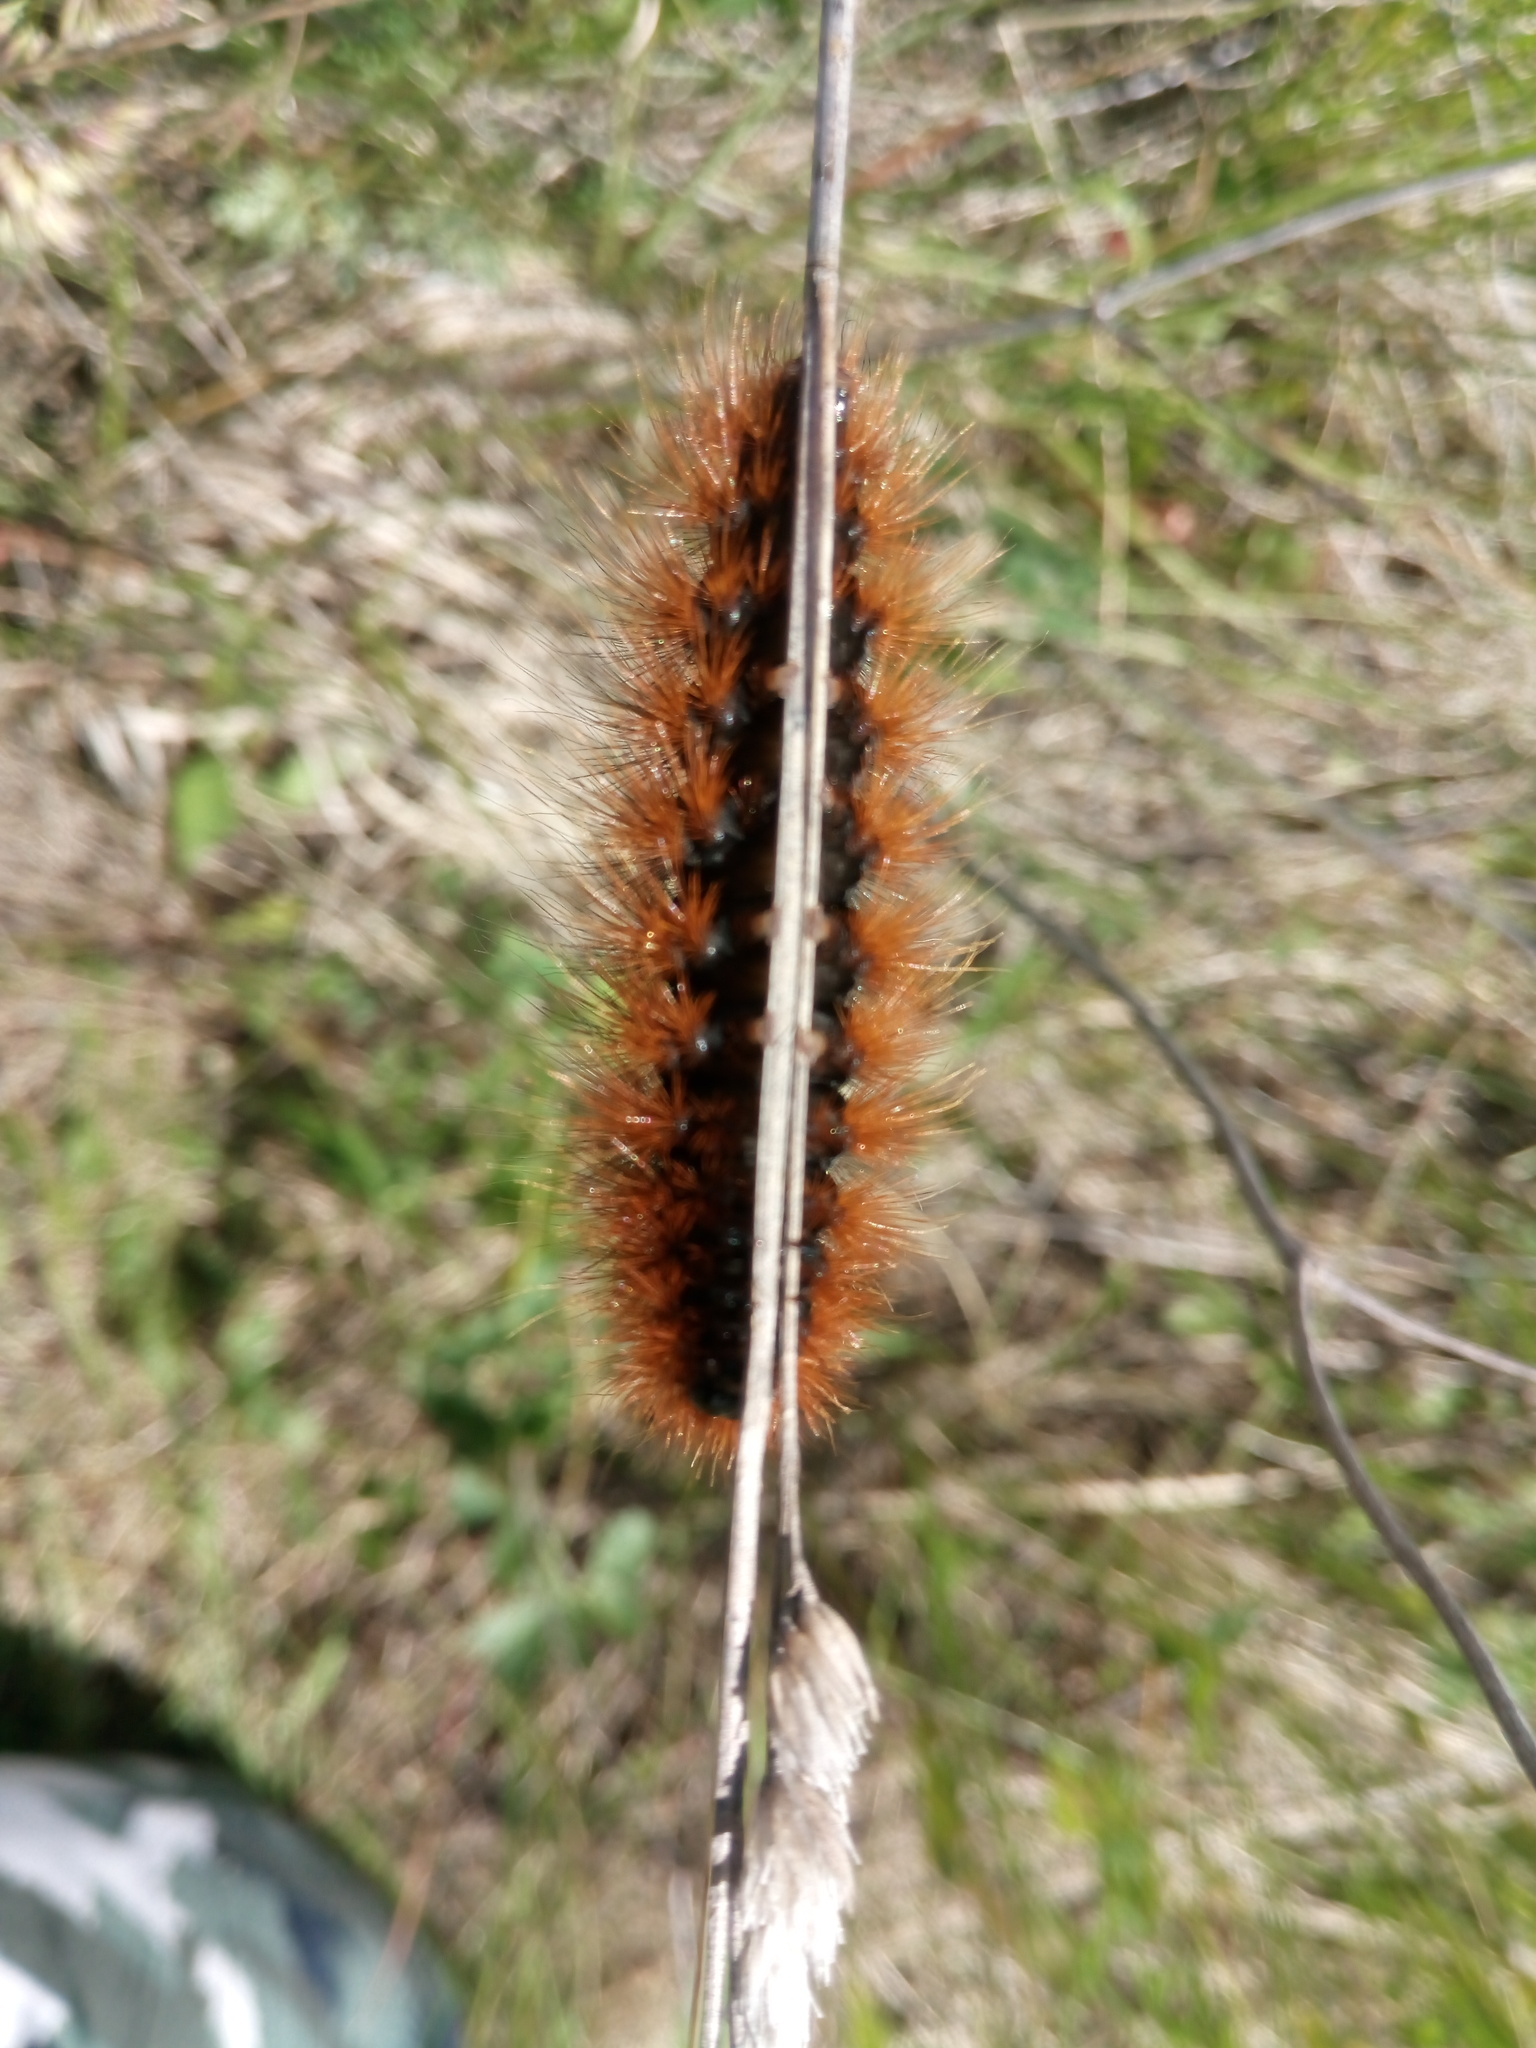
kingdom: Animalia
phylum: Arthropoda
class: Insecta
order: Lepidoptera
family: Erebidae
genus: Arctia
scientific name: Arctia caja
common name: Garden tiger
